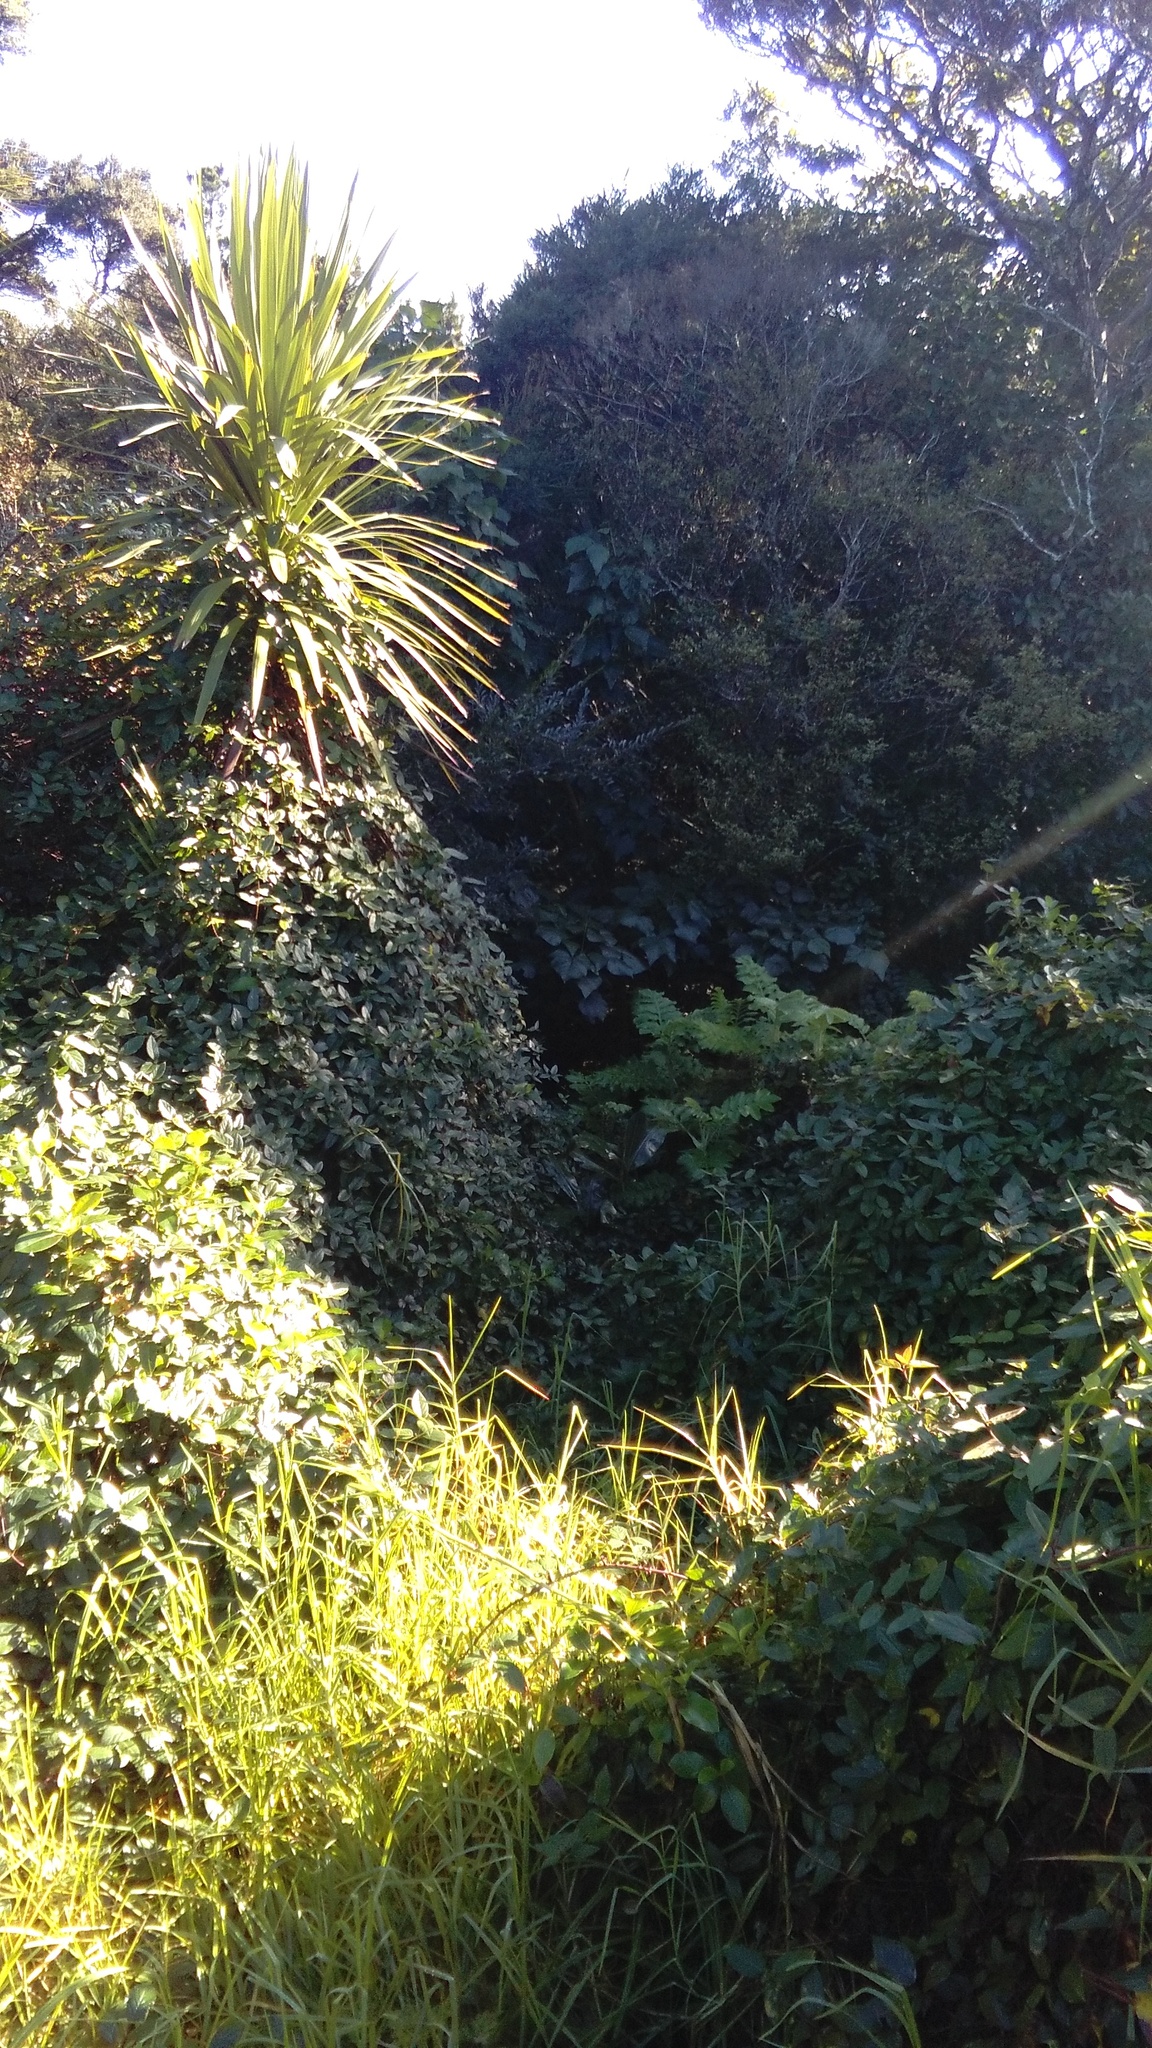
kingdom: Plantae
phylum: Tracheophyta
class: Liliopsida
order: Poales
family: Poaceae
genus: Cenchrus
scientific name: Cenchrus clandestinus
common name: Kikuyugrass
